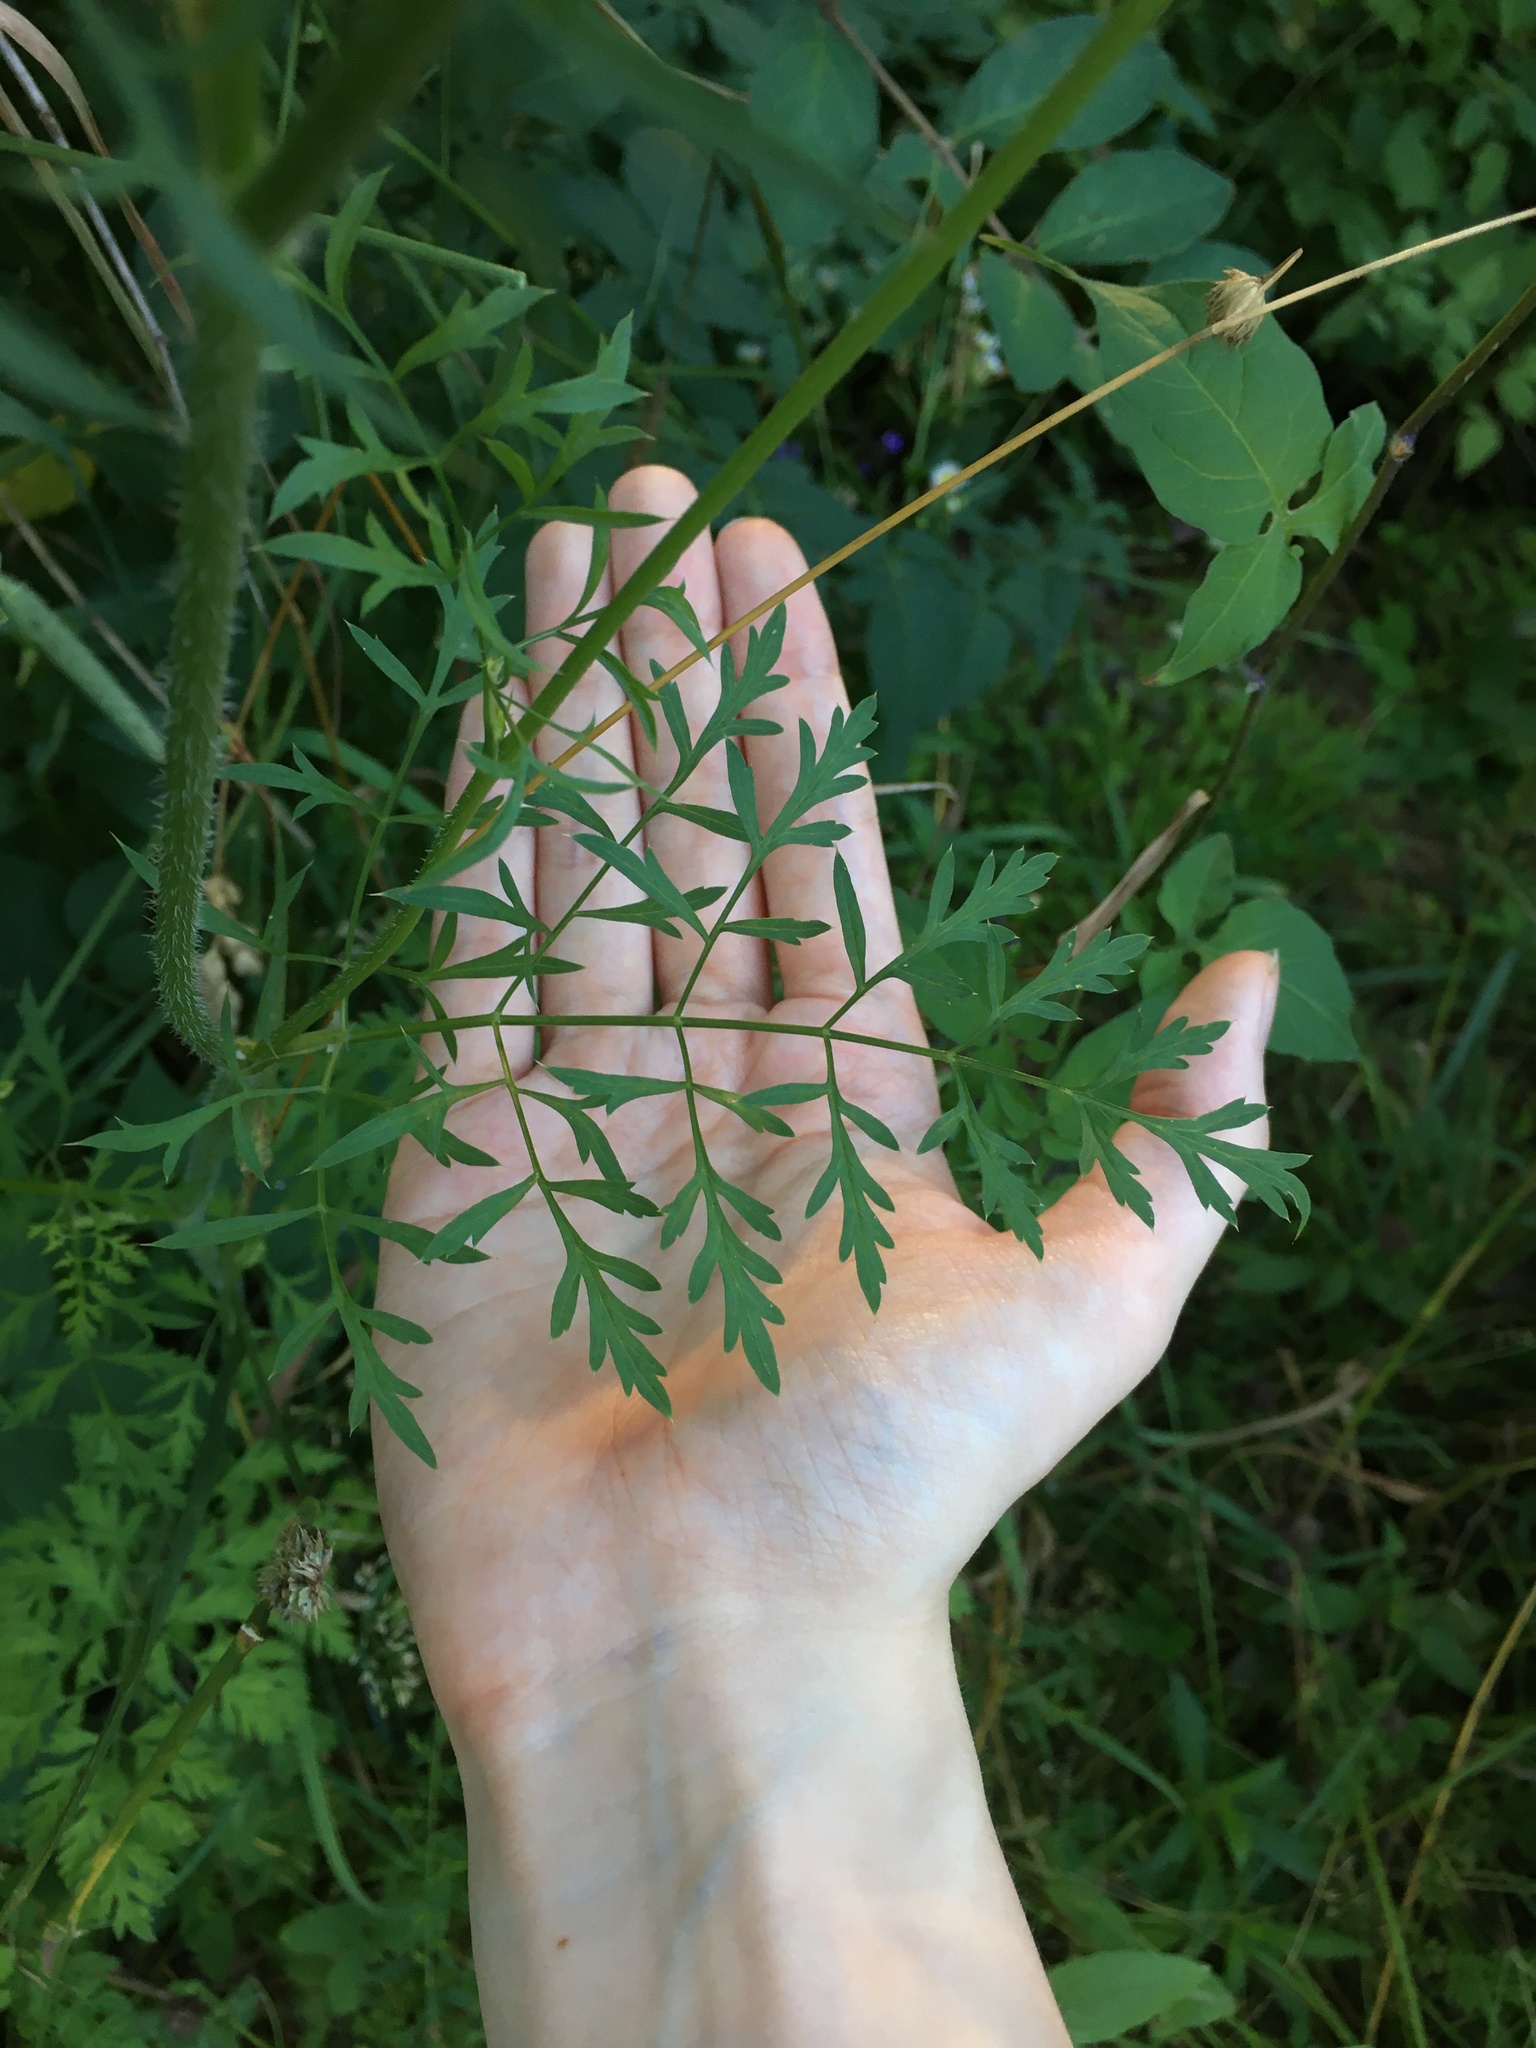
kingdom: Plantae
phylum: Tracheophyta
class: Magnoliopsida
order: Apiales
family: Apiaceae
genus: Daucus
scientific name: Daucus carota
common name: Wild carrot
